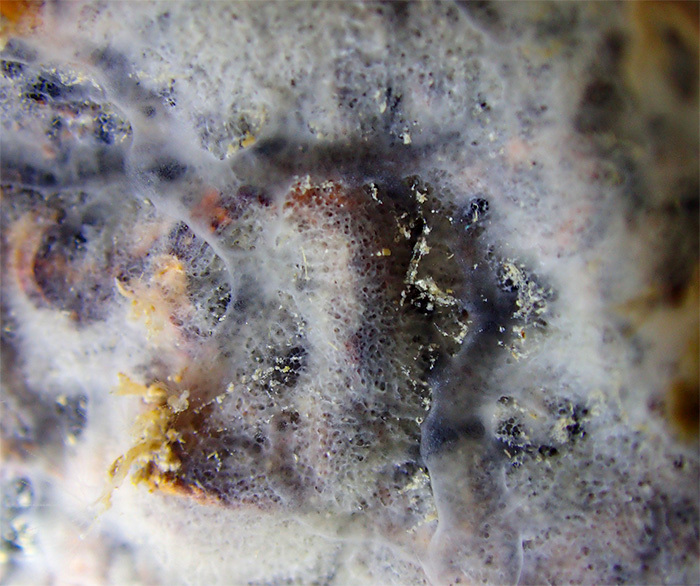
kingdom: Animalia
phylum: Porifera
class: Demospongiae
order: Haplosclerida
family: Chalinidae
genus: Dendroxea
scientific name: Dendroxea lenis
